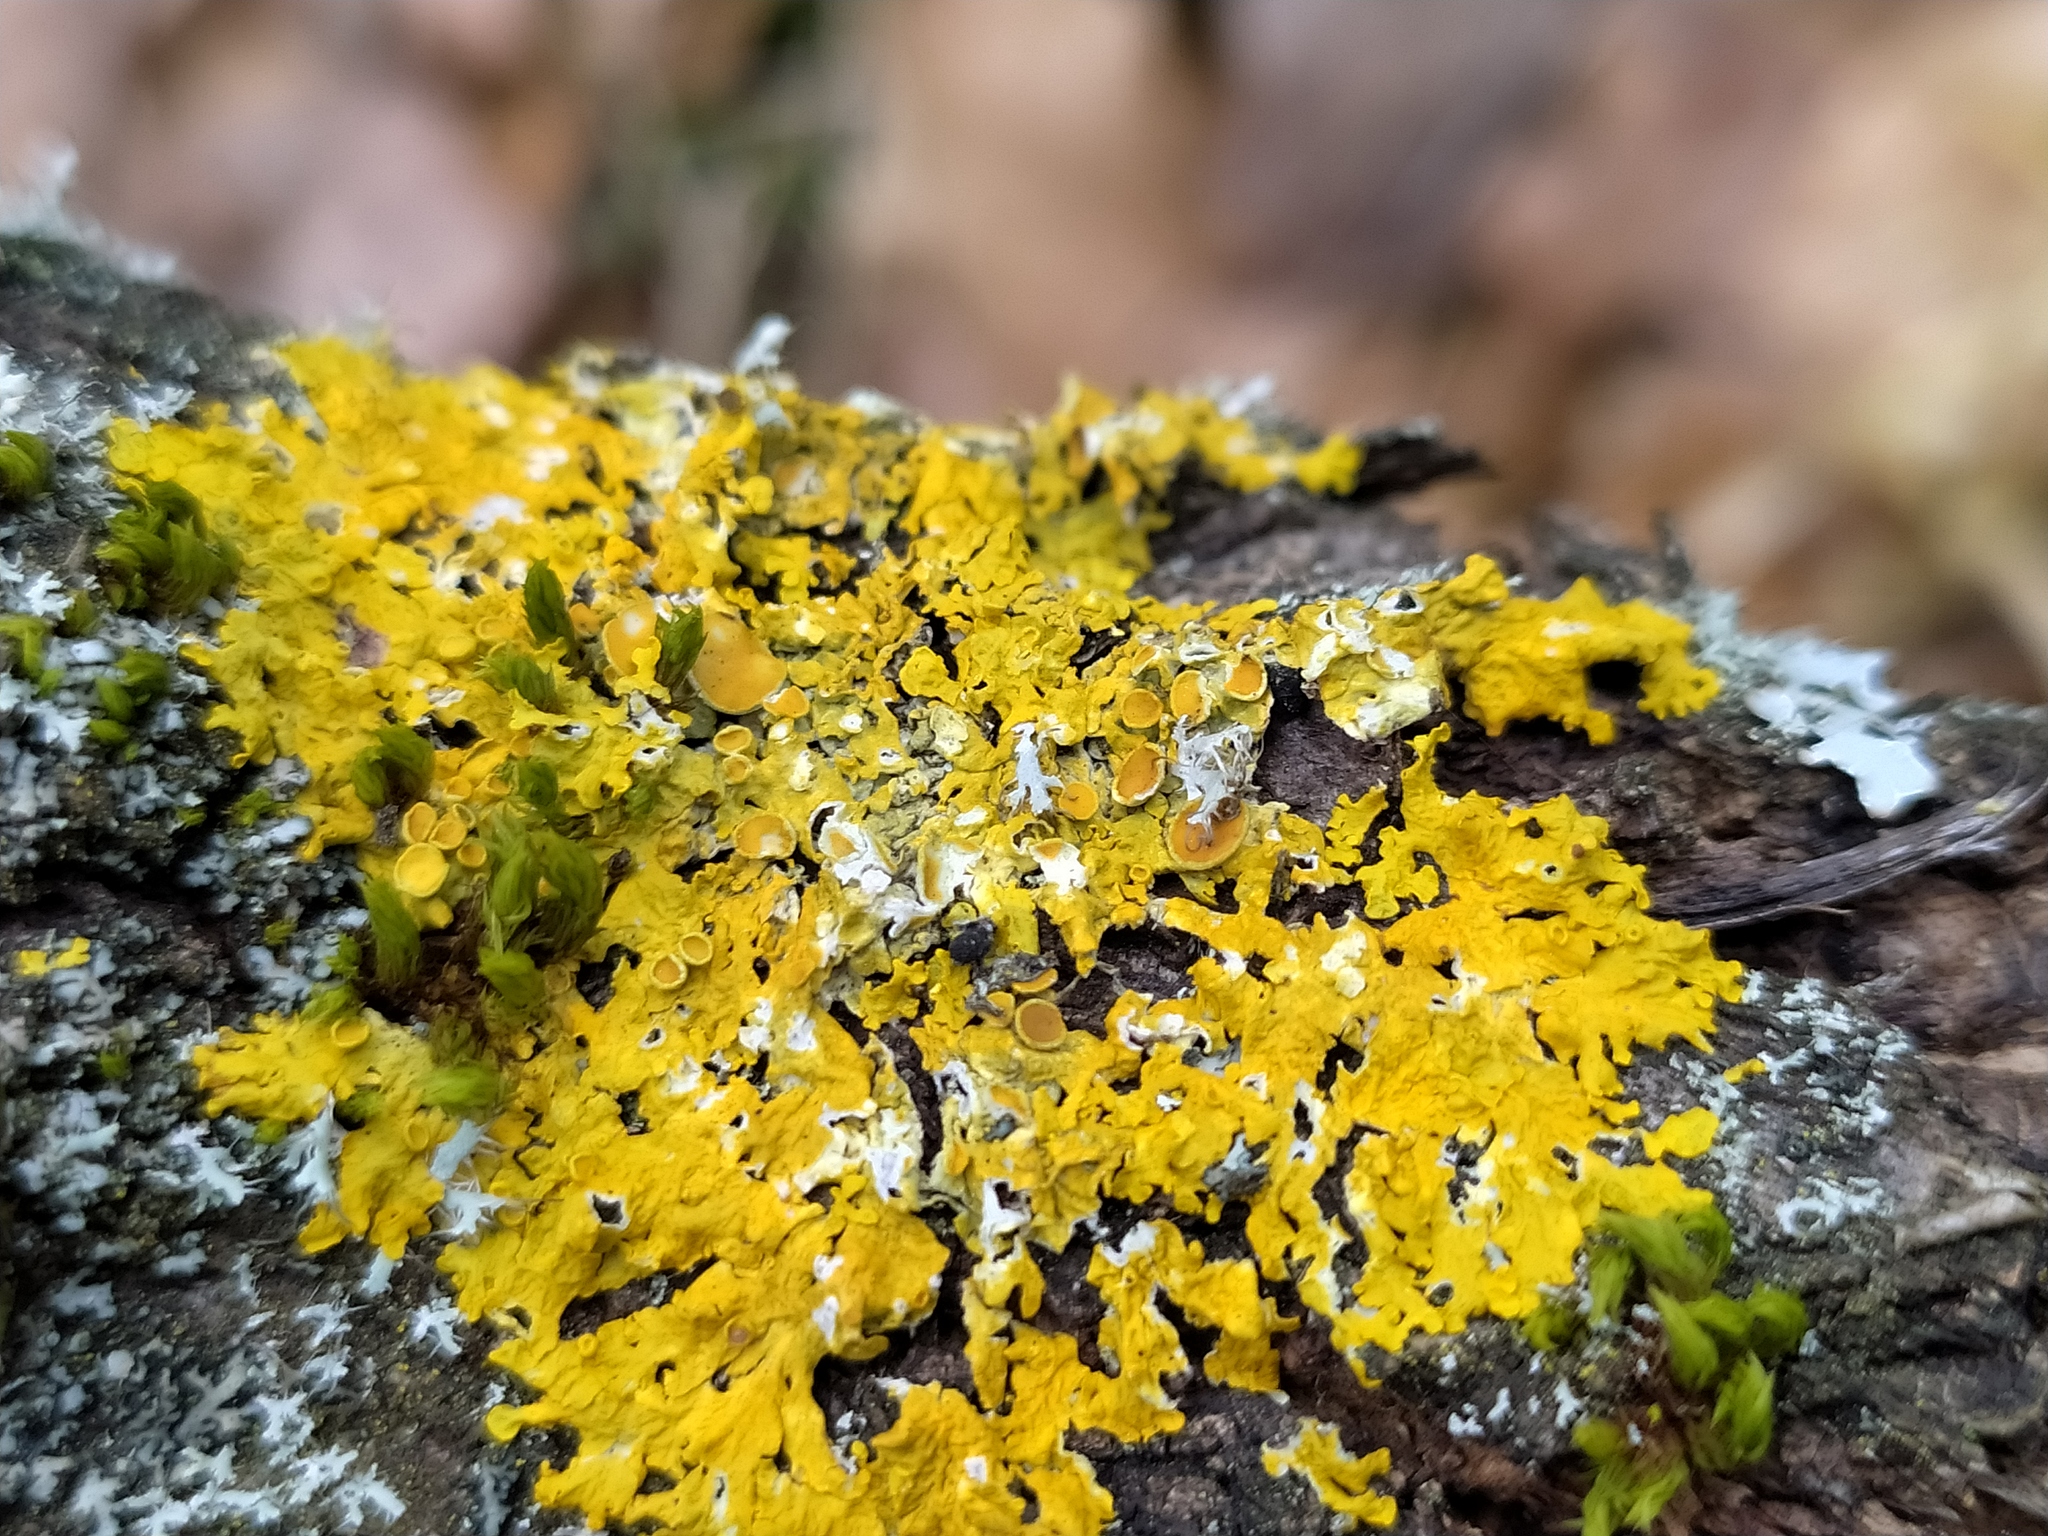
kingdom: Fungi
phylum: Ascomycota
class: Lecanoromycetes
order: Teloschistales
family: Teloschistaceae
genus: Xanthoria
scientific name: Xanthoria parietina
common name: Common orange lichen
